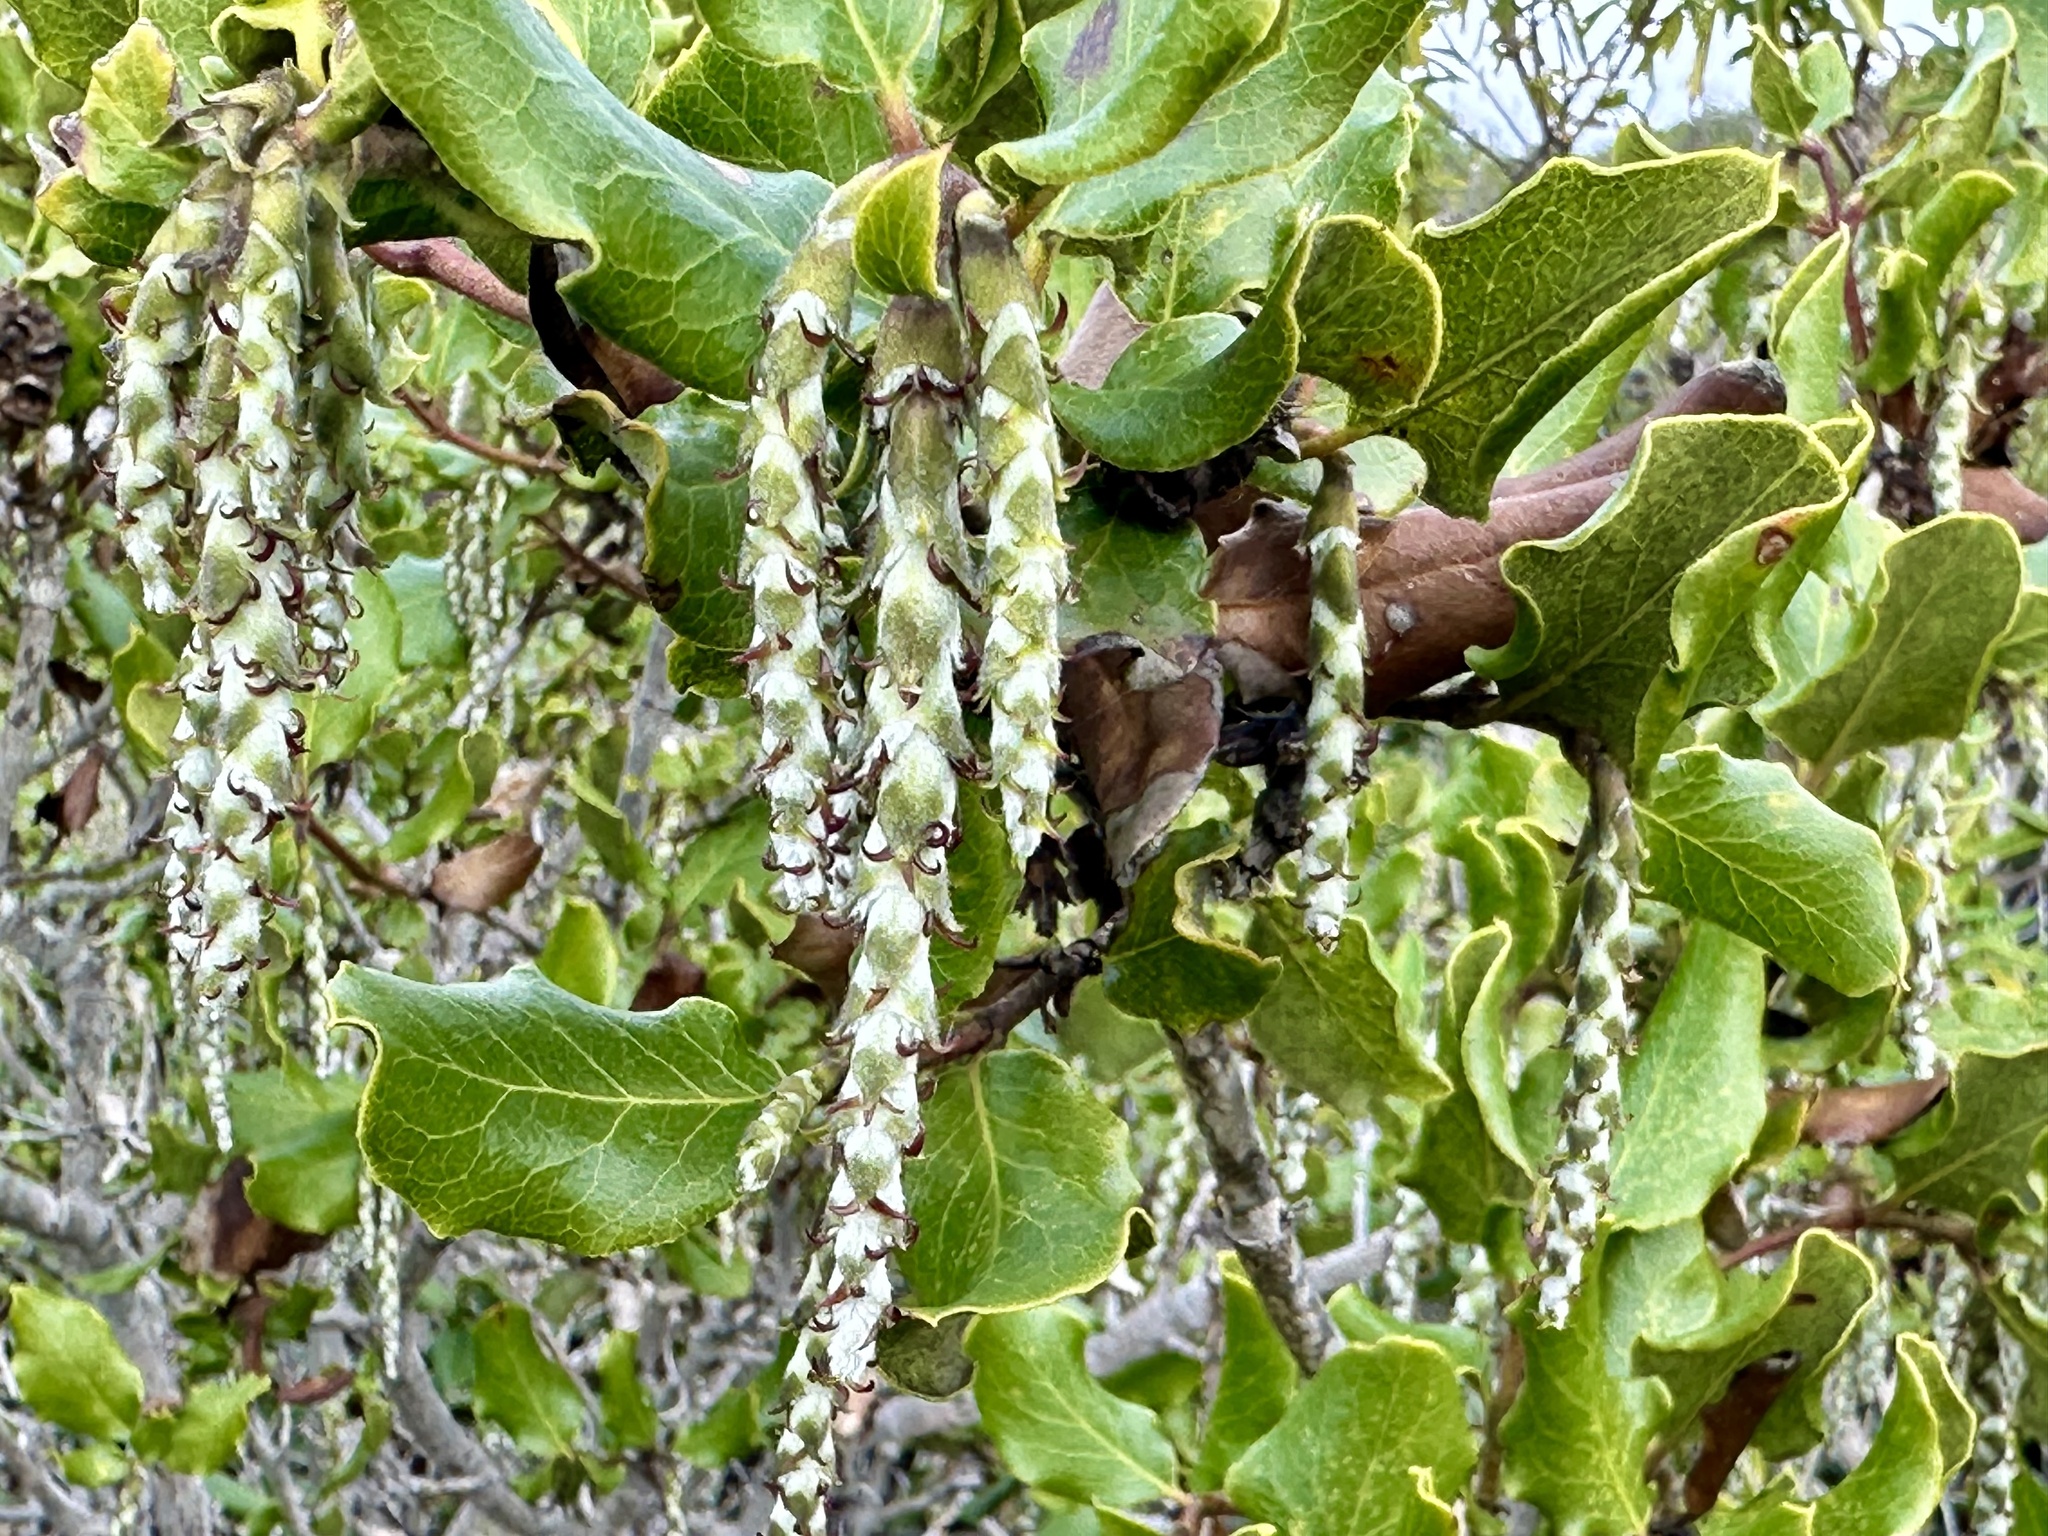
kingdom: Plantae
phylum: Tracheophyta
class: Magnoliopsida
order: Garryales
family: Garryaceae
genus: Garrya
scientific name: Garrya elliptica
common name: Silk-tassel
